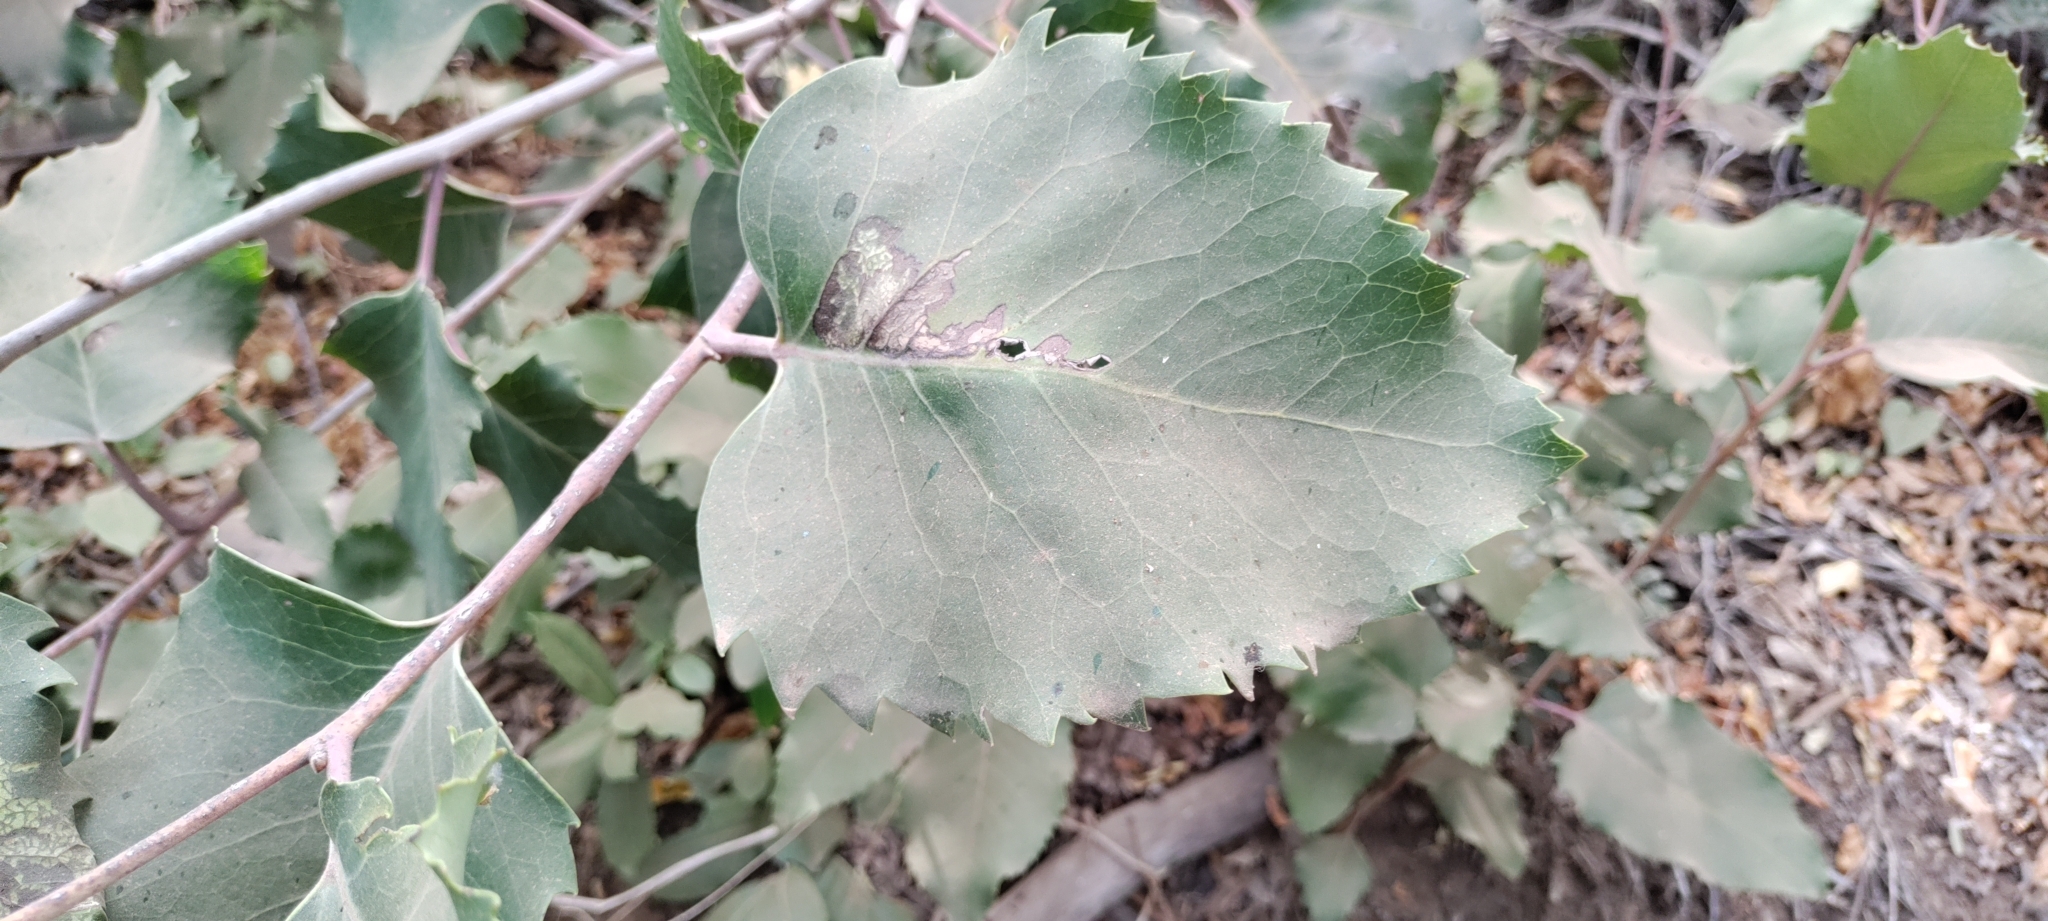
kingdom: Plantae
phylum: Tracheophyta
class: Magnoliopsida
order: Proteales
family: Proteaceae
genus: Lomatia
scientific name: Lomatia hirsuta
